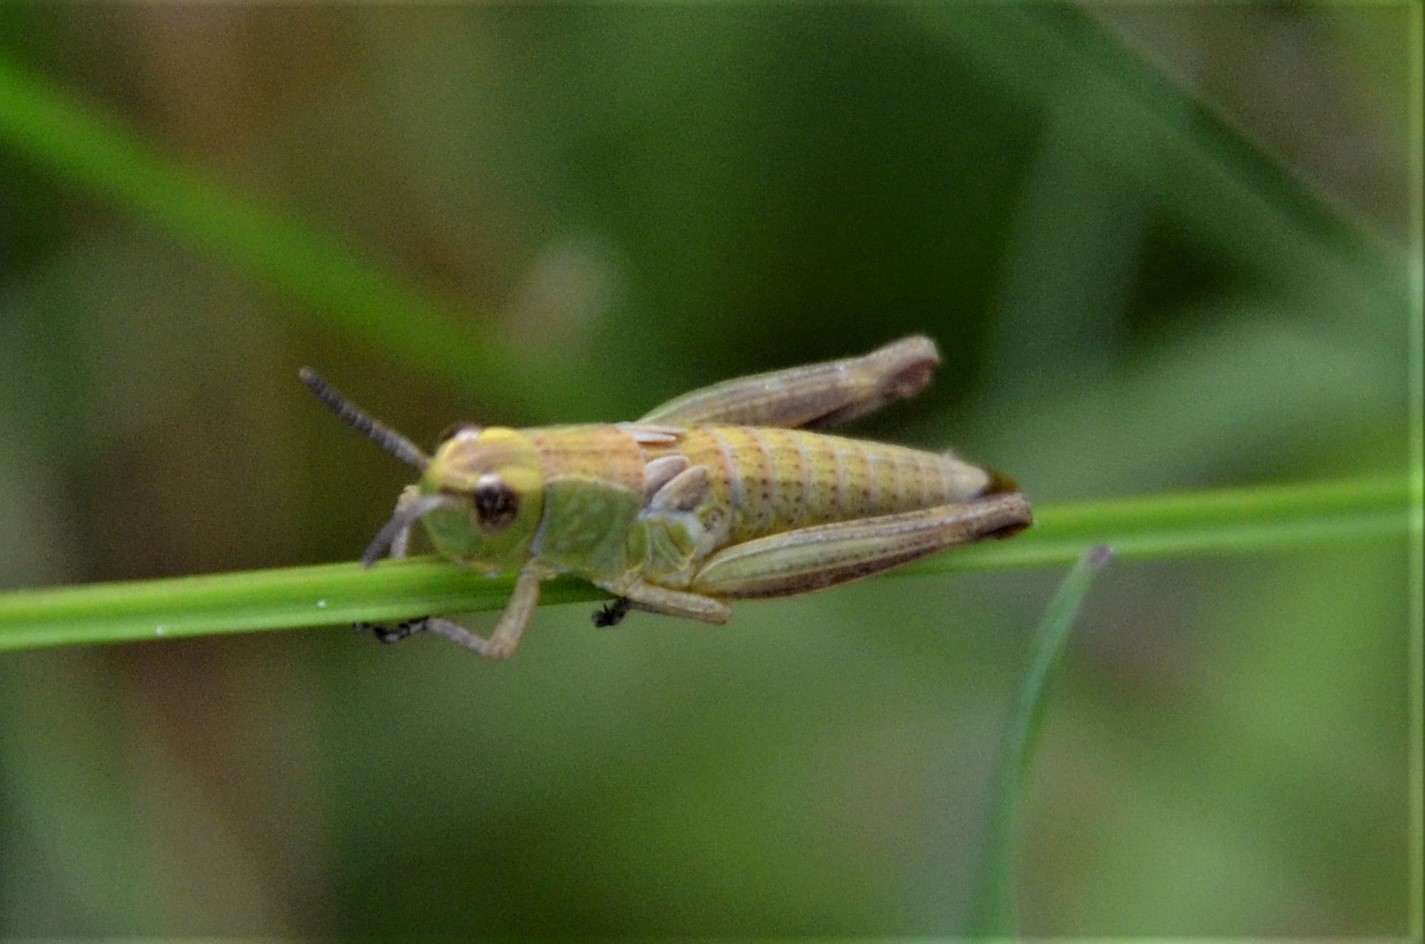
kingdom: Animalia
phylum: Arthropoda
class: Insecta
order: Orthoptera
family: Acrididae
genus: Pseudochorthippus
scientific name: Pseudochorthippus parallelus
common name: Meadow grasshopper
